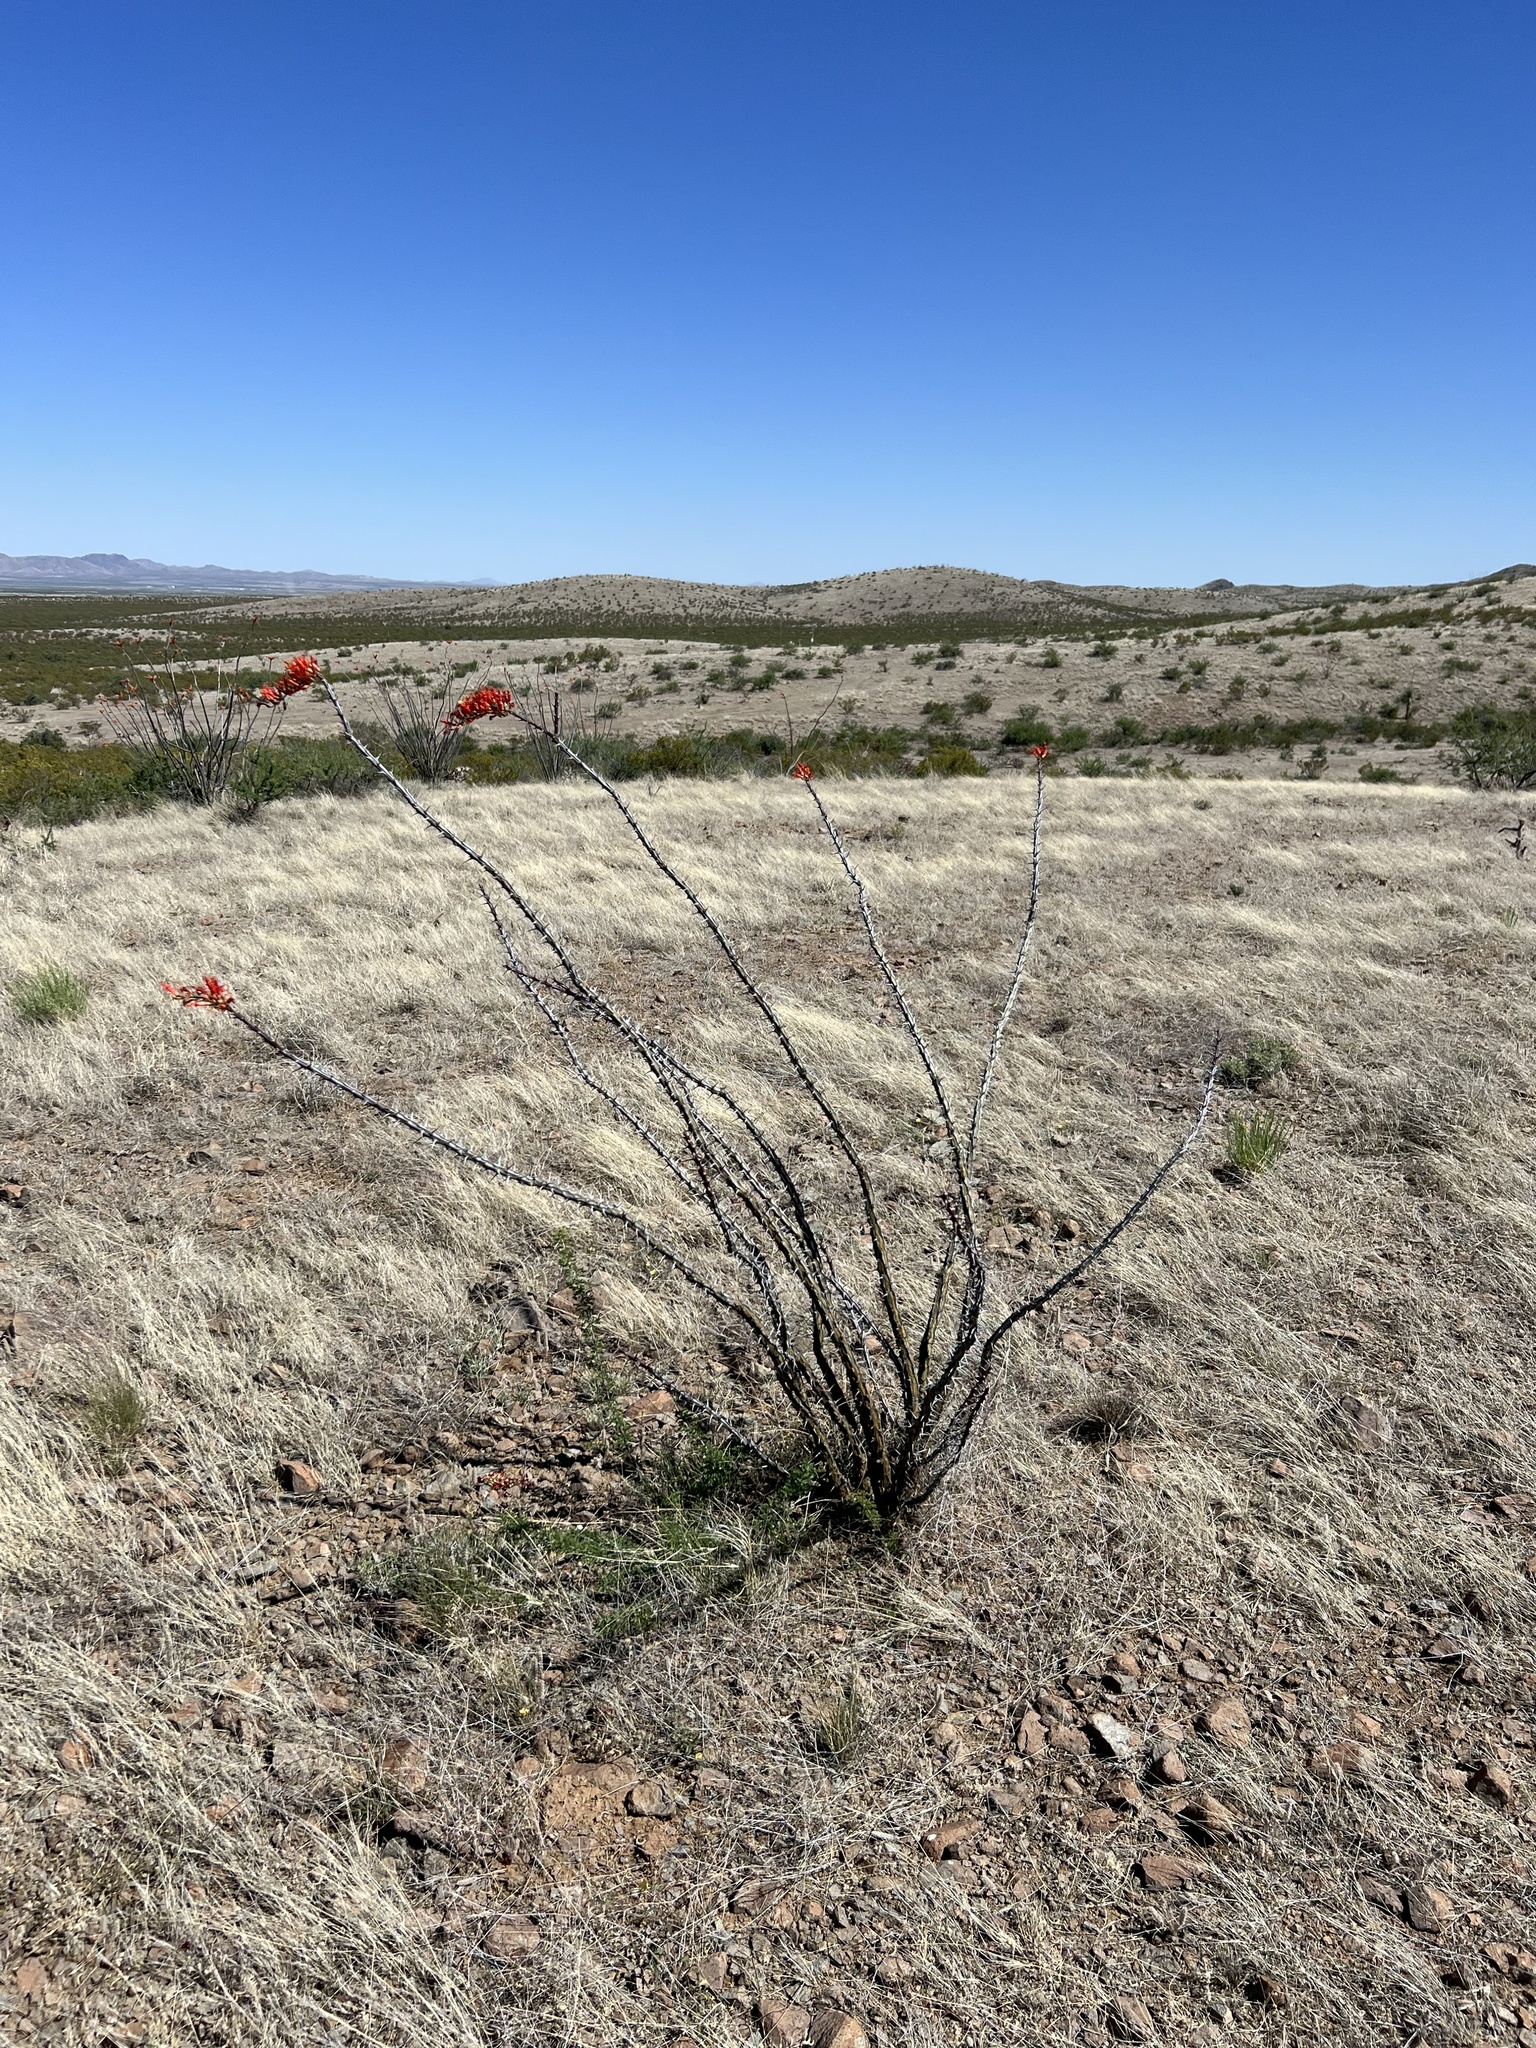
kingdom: Plantae
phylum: Tracheophyta
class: Magnoliopsida
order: Ericales
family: Fouquieriaceae
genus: Fouquieria
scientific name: Fouquieria splendens
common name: Vine-cactus
